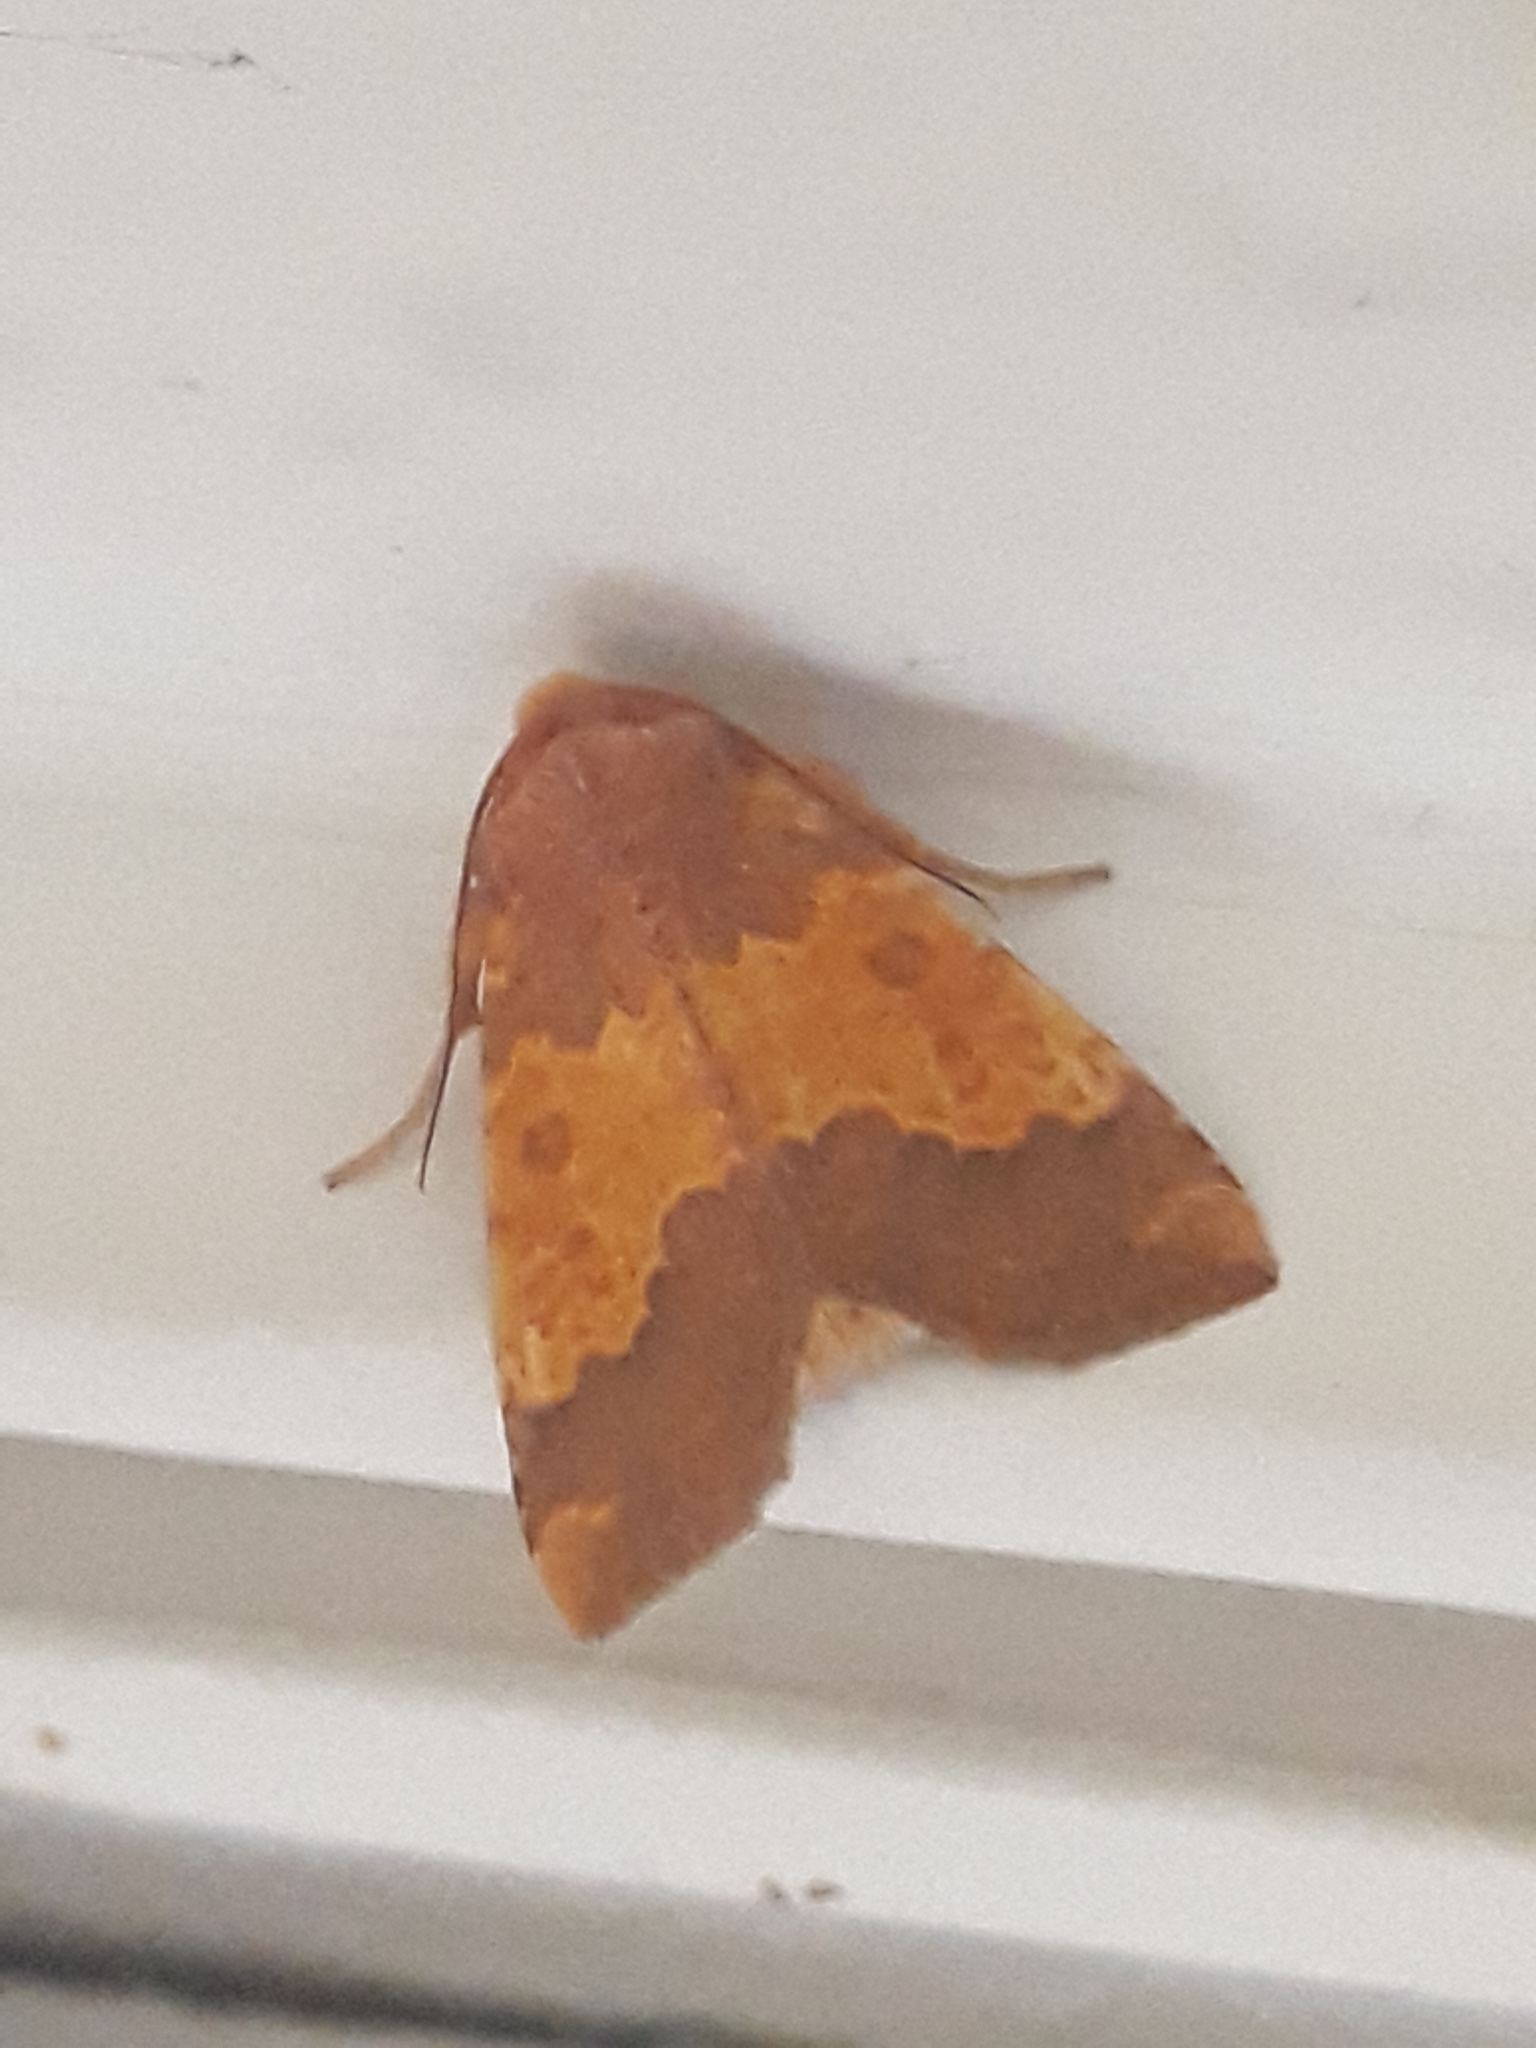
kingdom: Animalia
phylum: Arthropoda
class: Insecta
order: Lepidoptera
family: Noctuidae
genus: Tiliacea
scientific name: Tiliacea aurago
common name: Barred sallow
